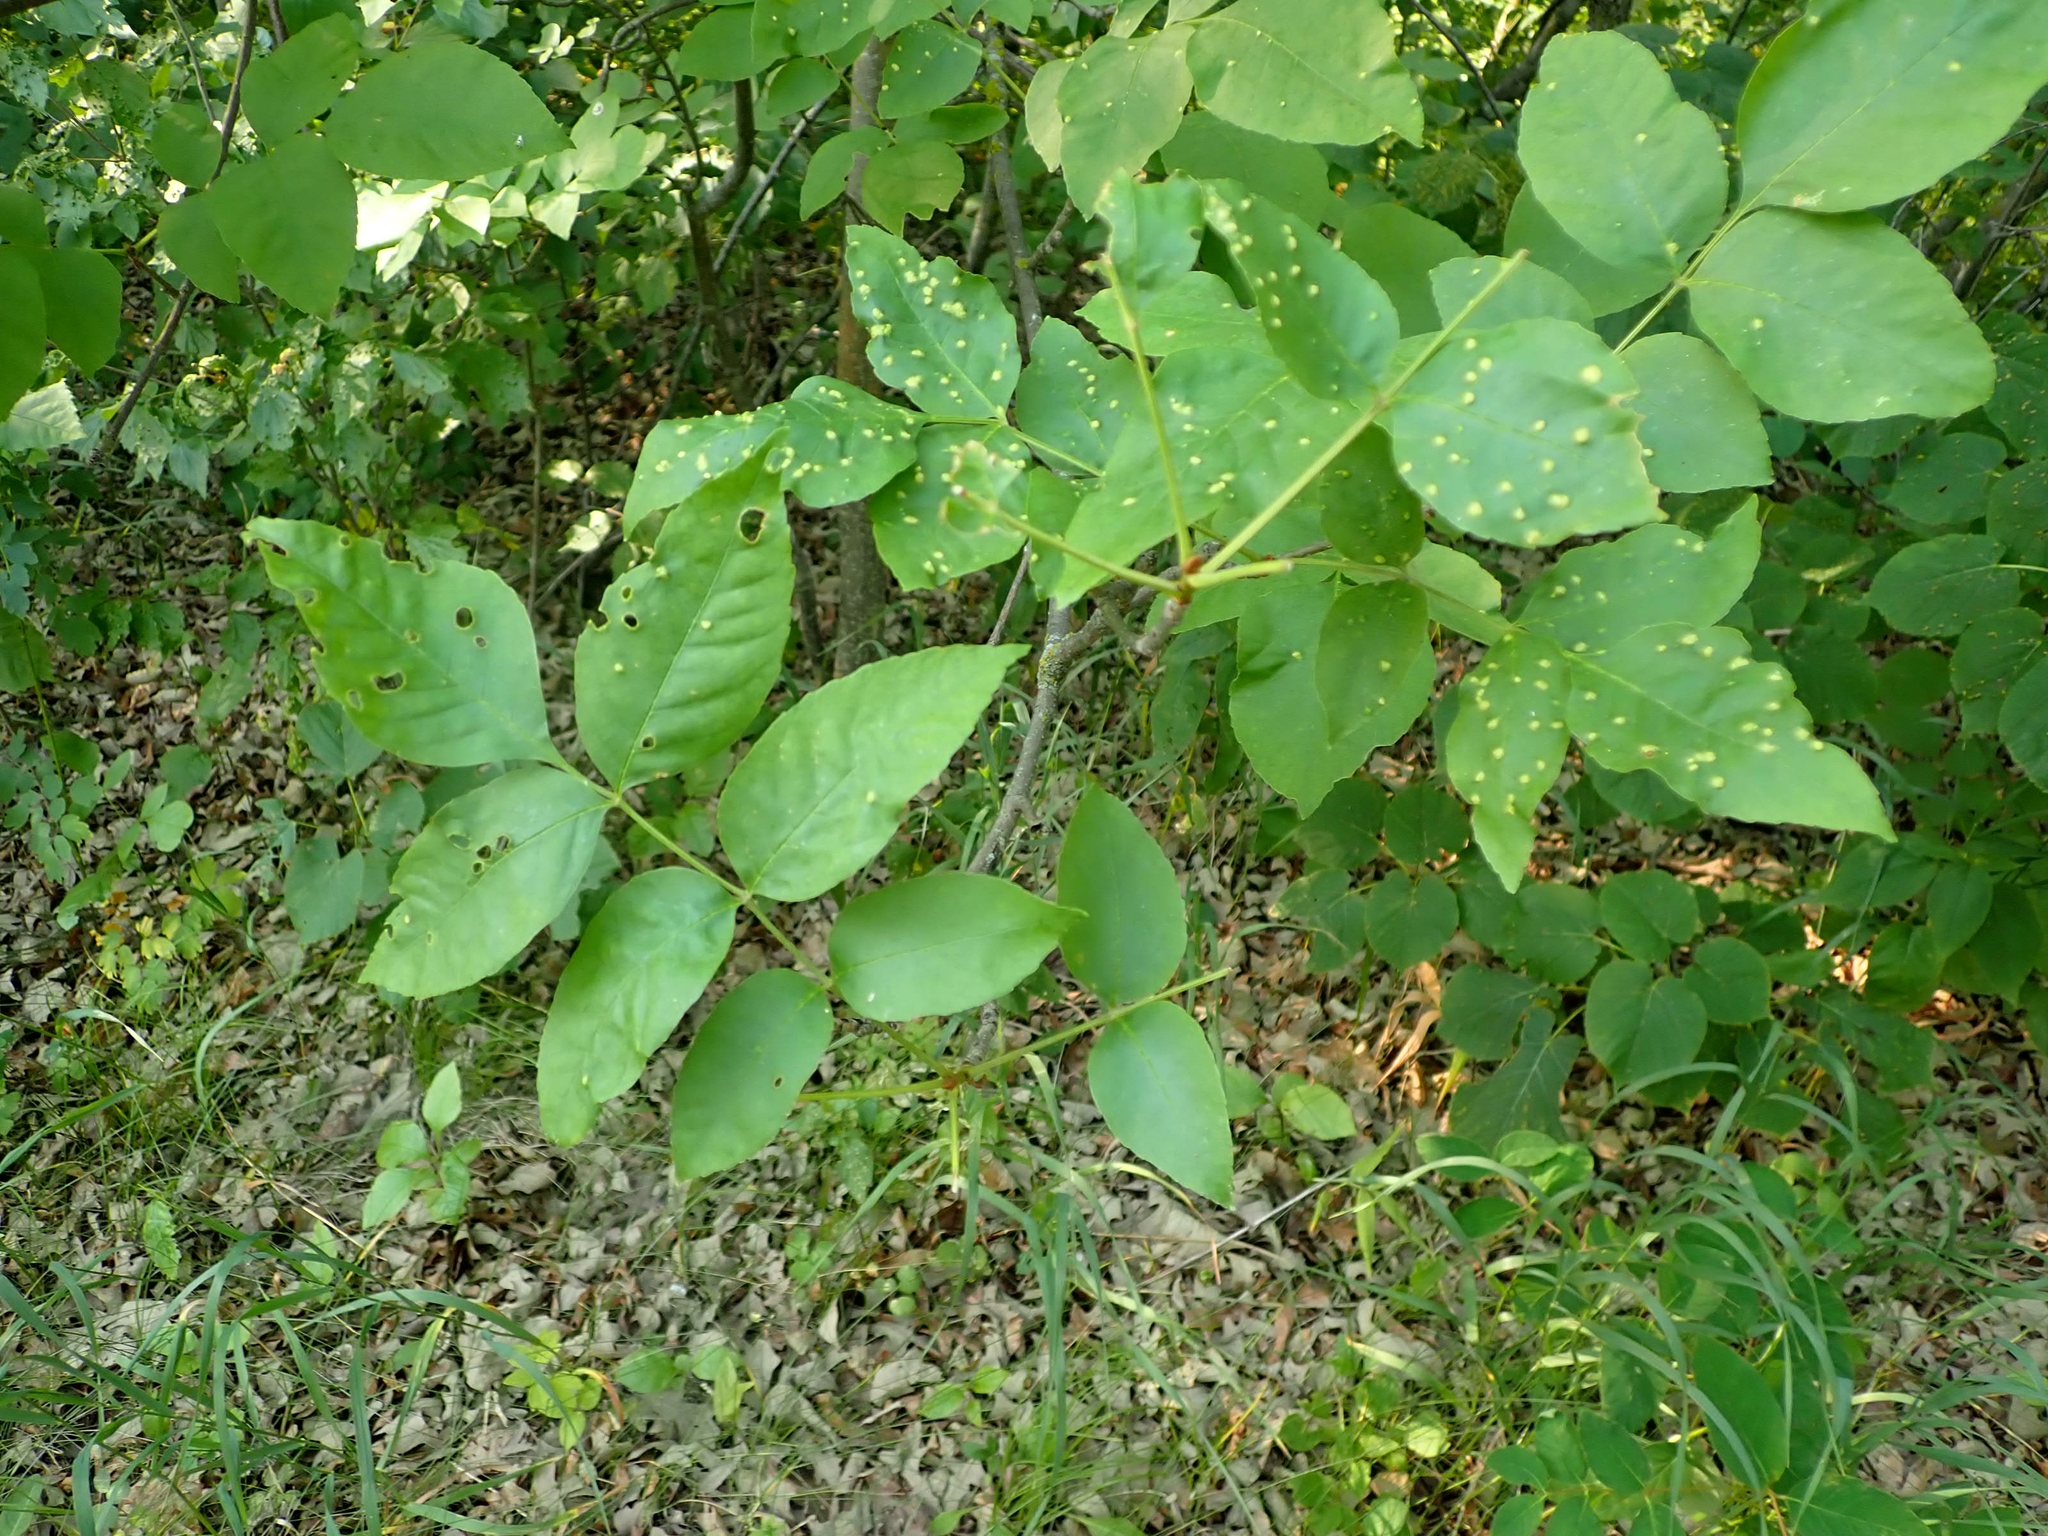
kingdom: Plantae
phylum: Tracheophyta
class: Magnoliopsida
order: Lamiales
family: Oleaceae
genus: Fraxinus
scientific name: Fraxinus pennsylvanica
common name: Green ash
